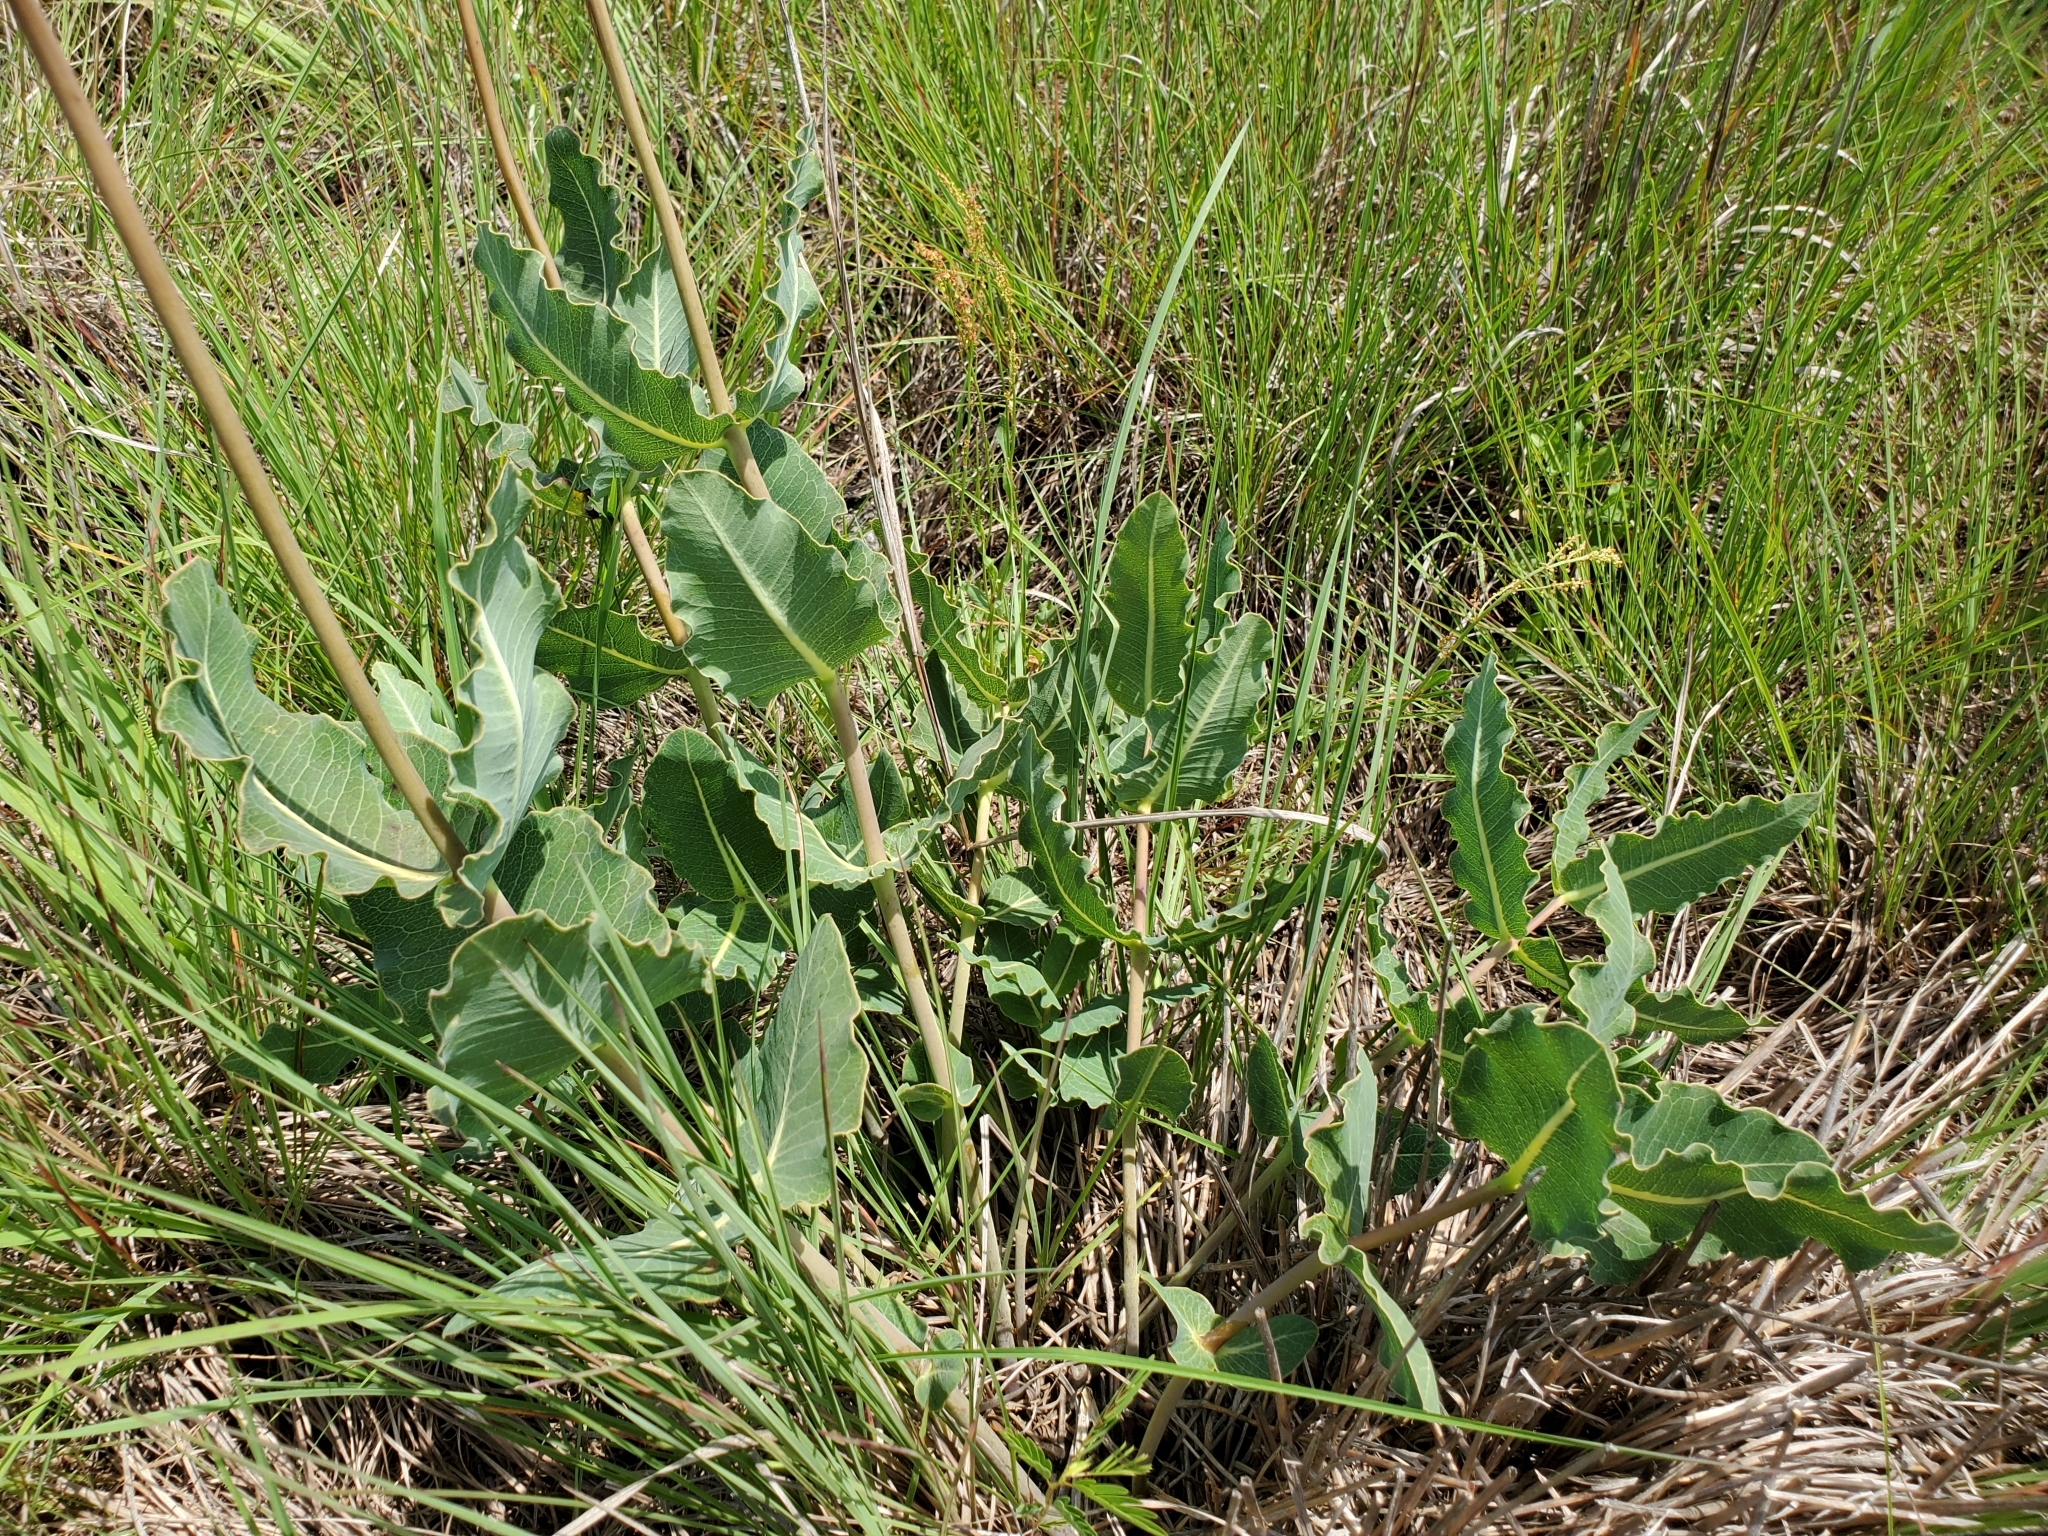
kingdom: Plantae
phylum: Tracheophyta
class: Magnoliopsida
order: Gentianales
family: Apocynaceae
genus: Asclepias
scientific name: Asclepias amplexicaulis
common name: Blunt-leaf milkweed
